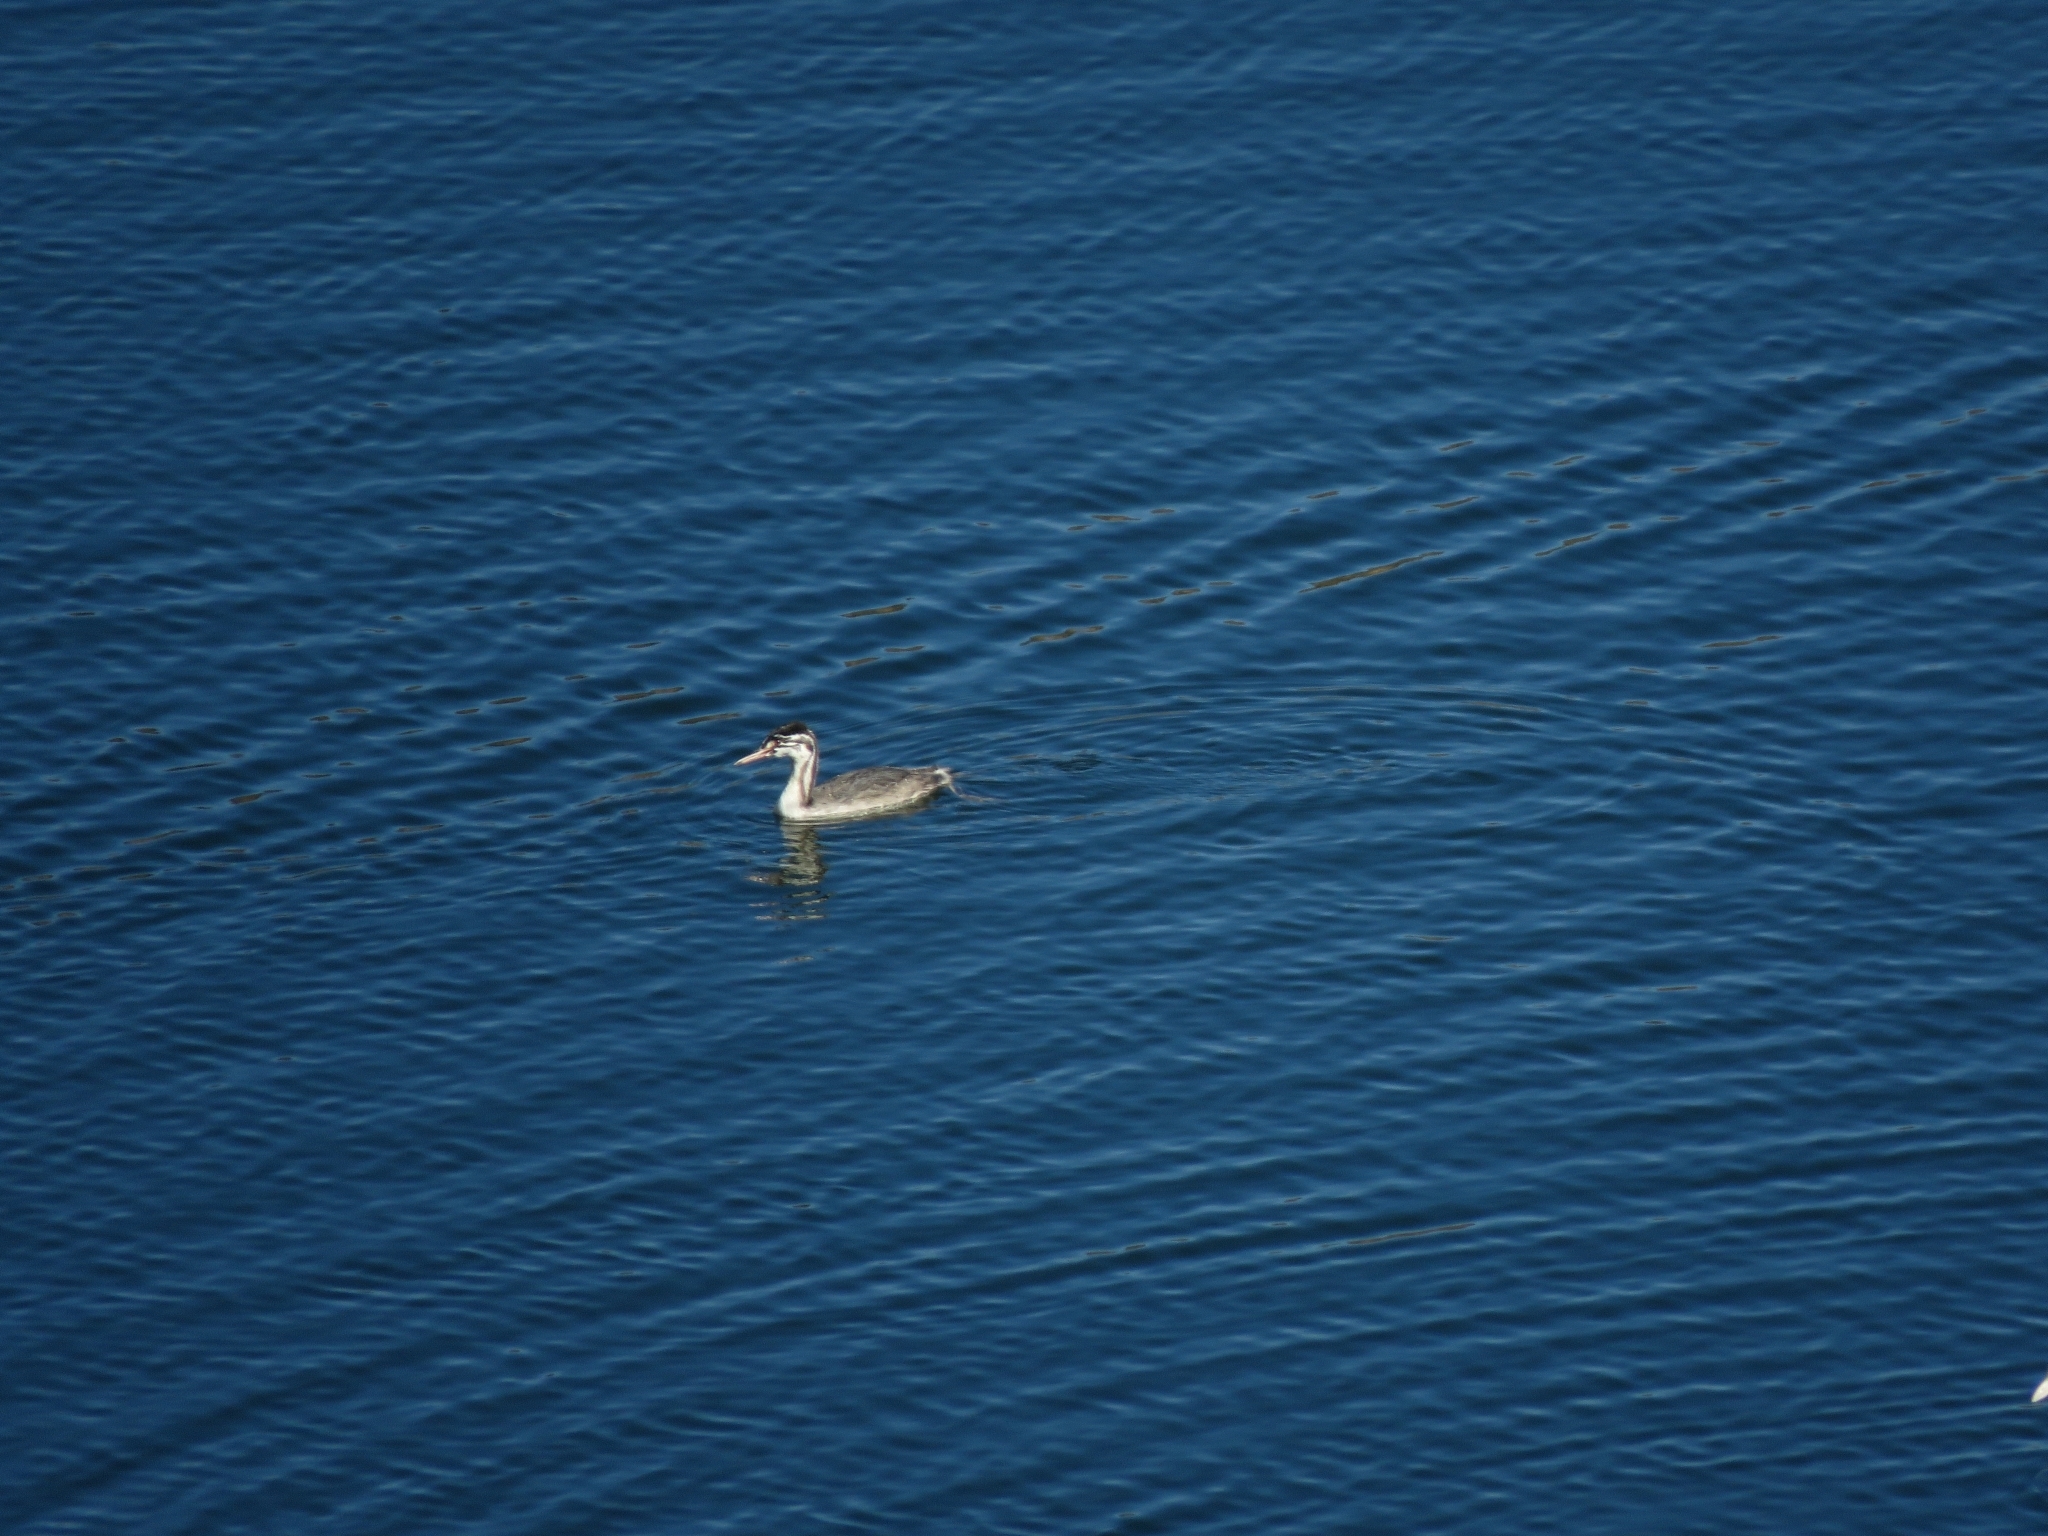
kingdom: Animalia
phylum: Chordata
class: Aves
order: Podicipediformes
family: Podicipedidae
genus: Podiceps
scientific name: Podiceps cristatus
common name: Great crested grebe
